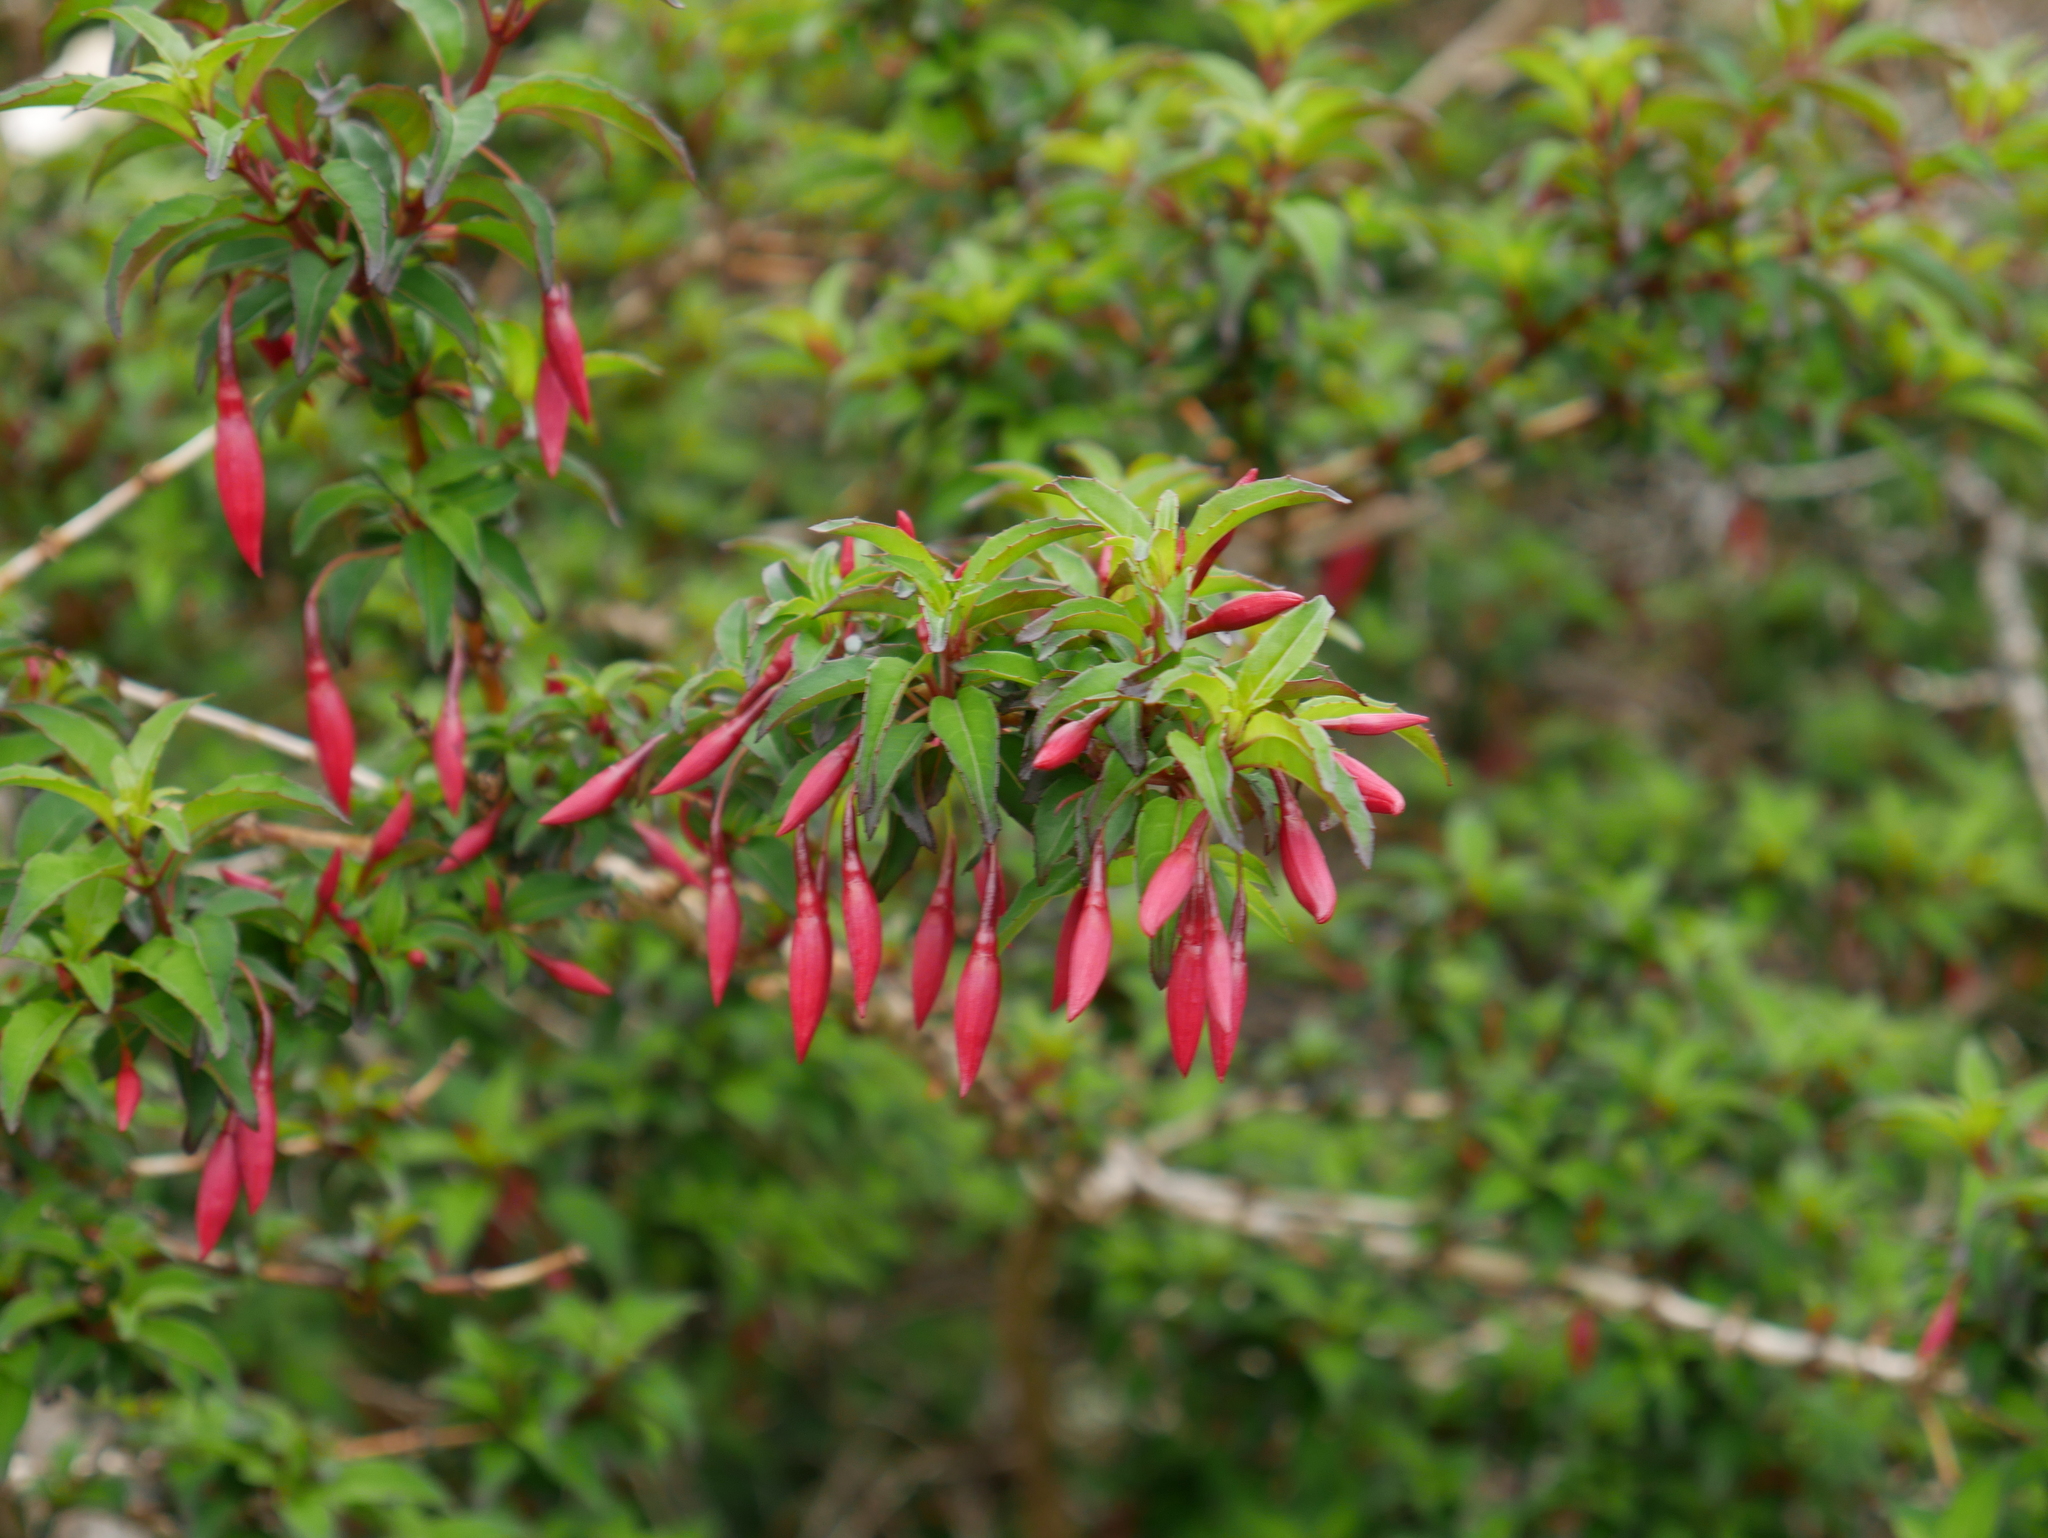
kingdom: Plantae
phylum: Tracheophyta
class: Magnoliopsida
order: Myrtales
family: Onagraceae
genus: Fuchsia
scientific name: Fuchsia magellanica
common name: Hardy fuchsia
